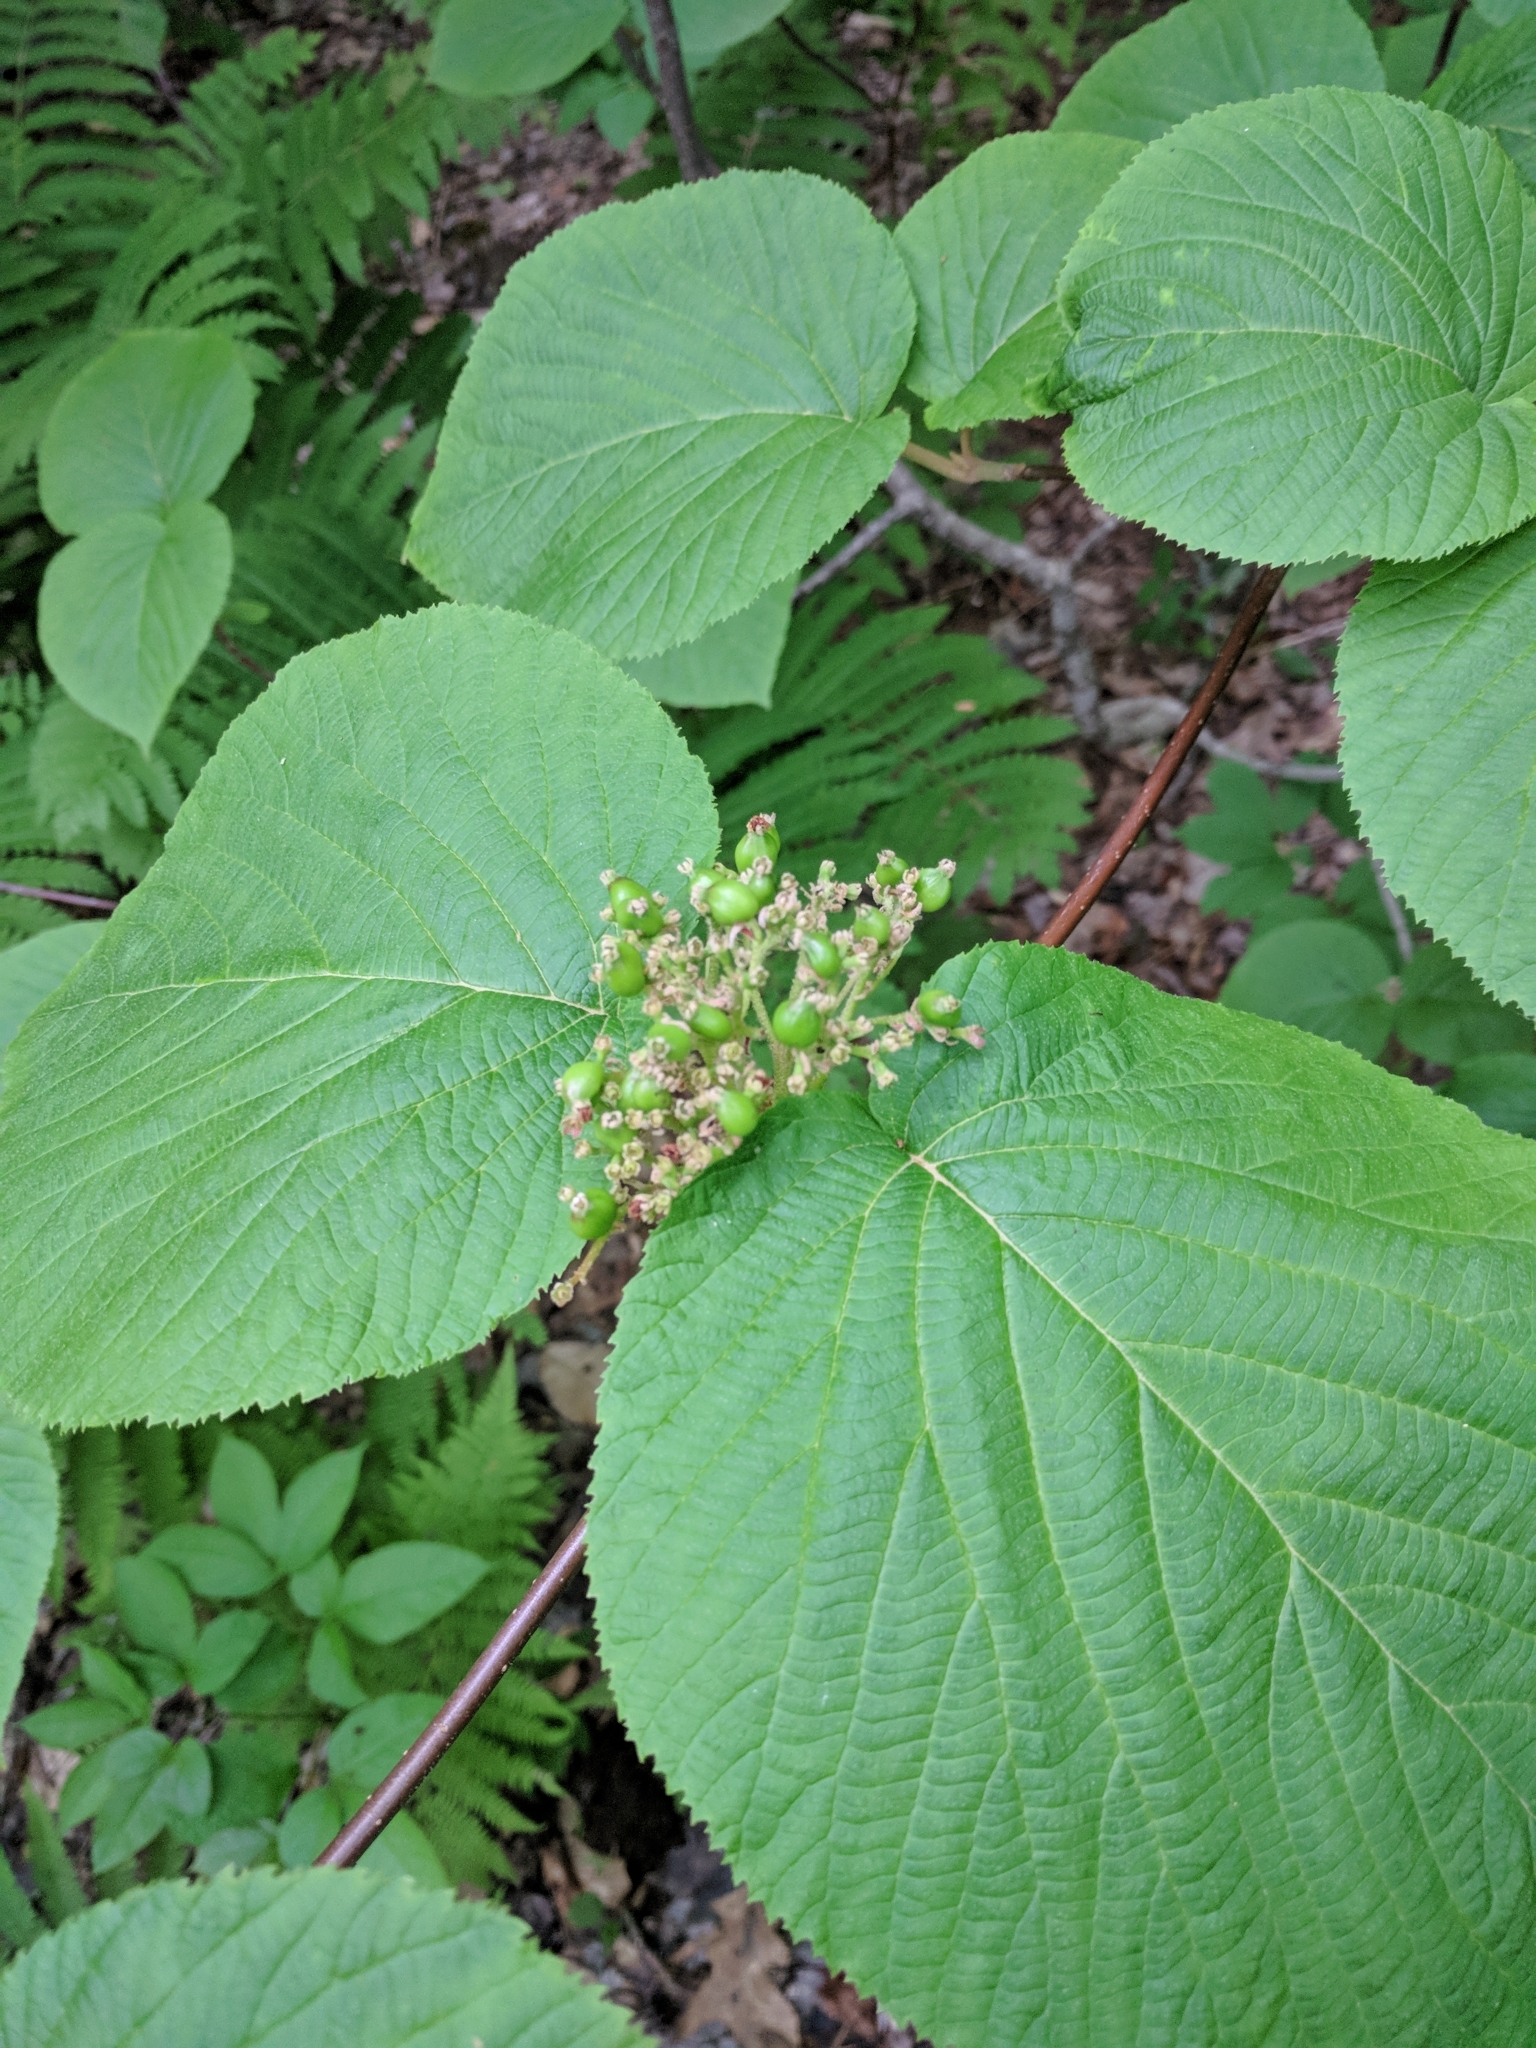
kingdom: Plantae
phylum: Tracheophyta
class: Magnoliopsida
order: Dipsacales
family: Viburnaceae
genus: Viburnum
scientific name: Viburnum lantanoides
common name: Hobblebush
